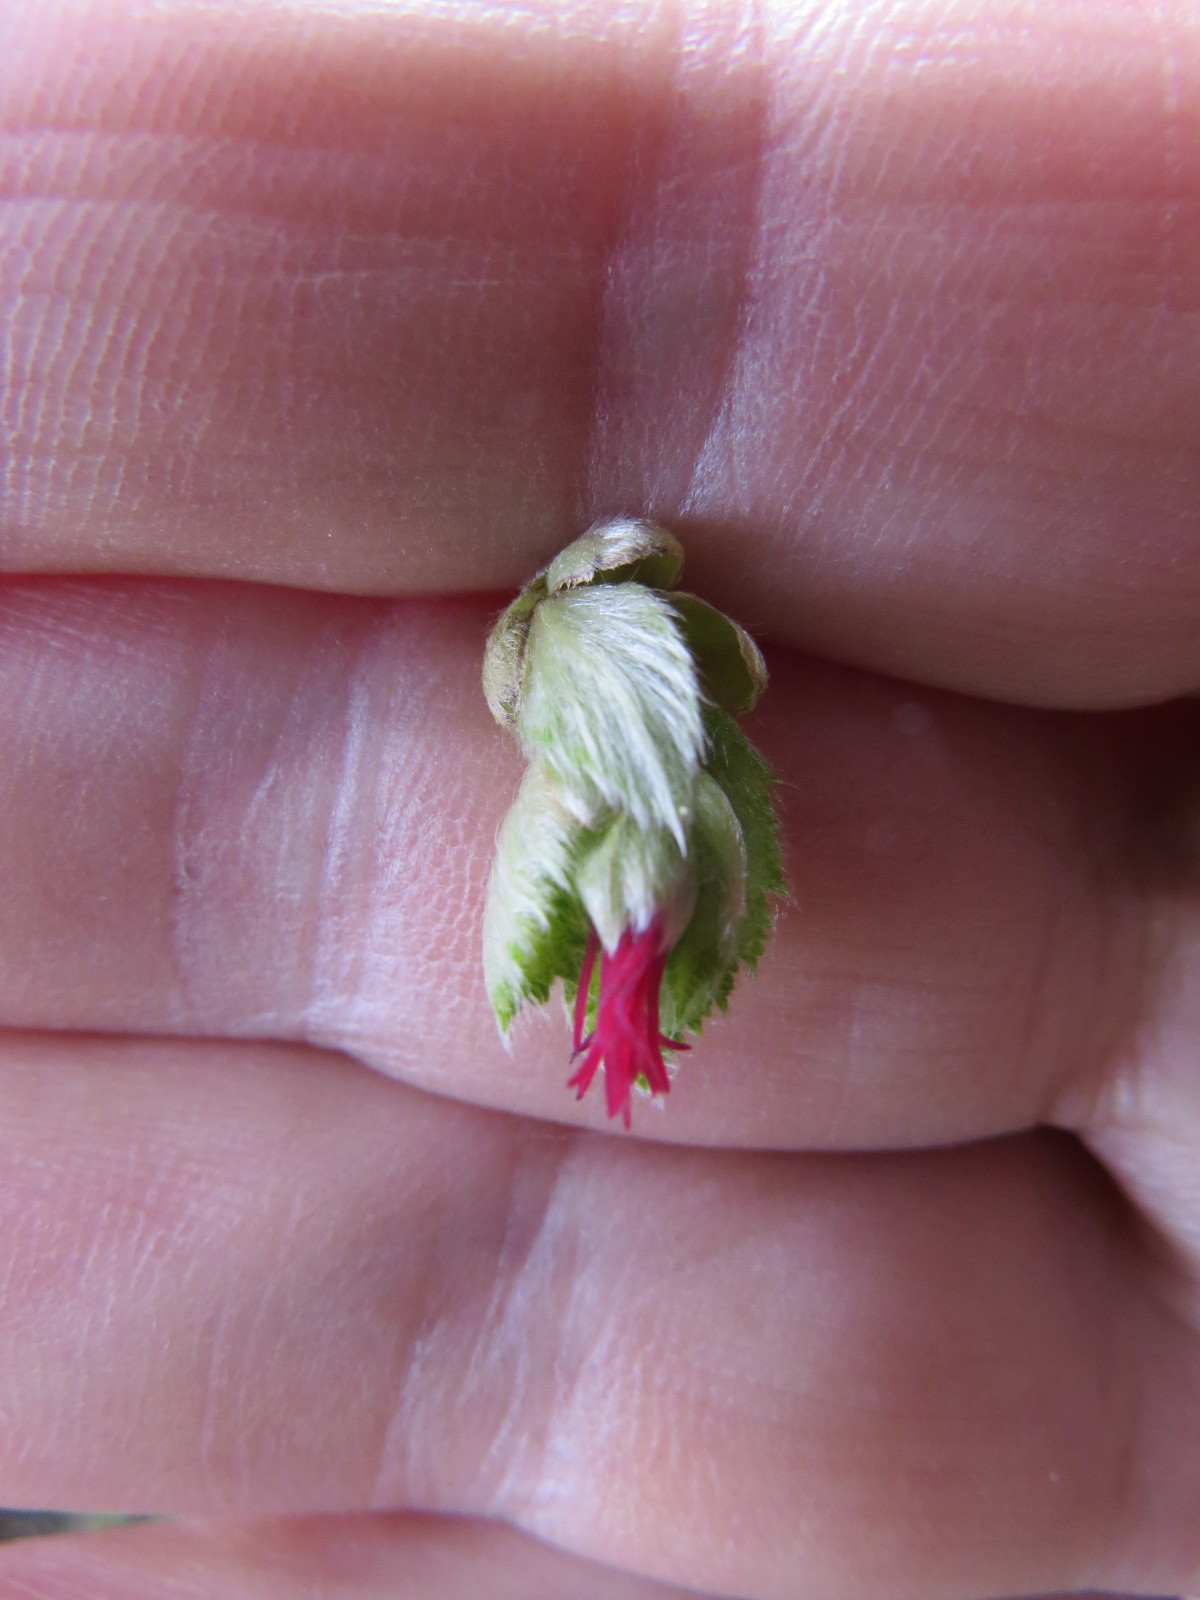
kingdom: Plantae
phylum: Tracheophyta
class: Magnoliopsida
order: Fagales
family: Betulaceae
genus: Corylus
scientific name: Corylus cornuta
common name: Beaked hazel
